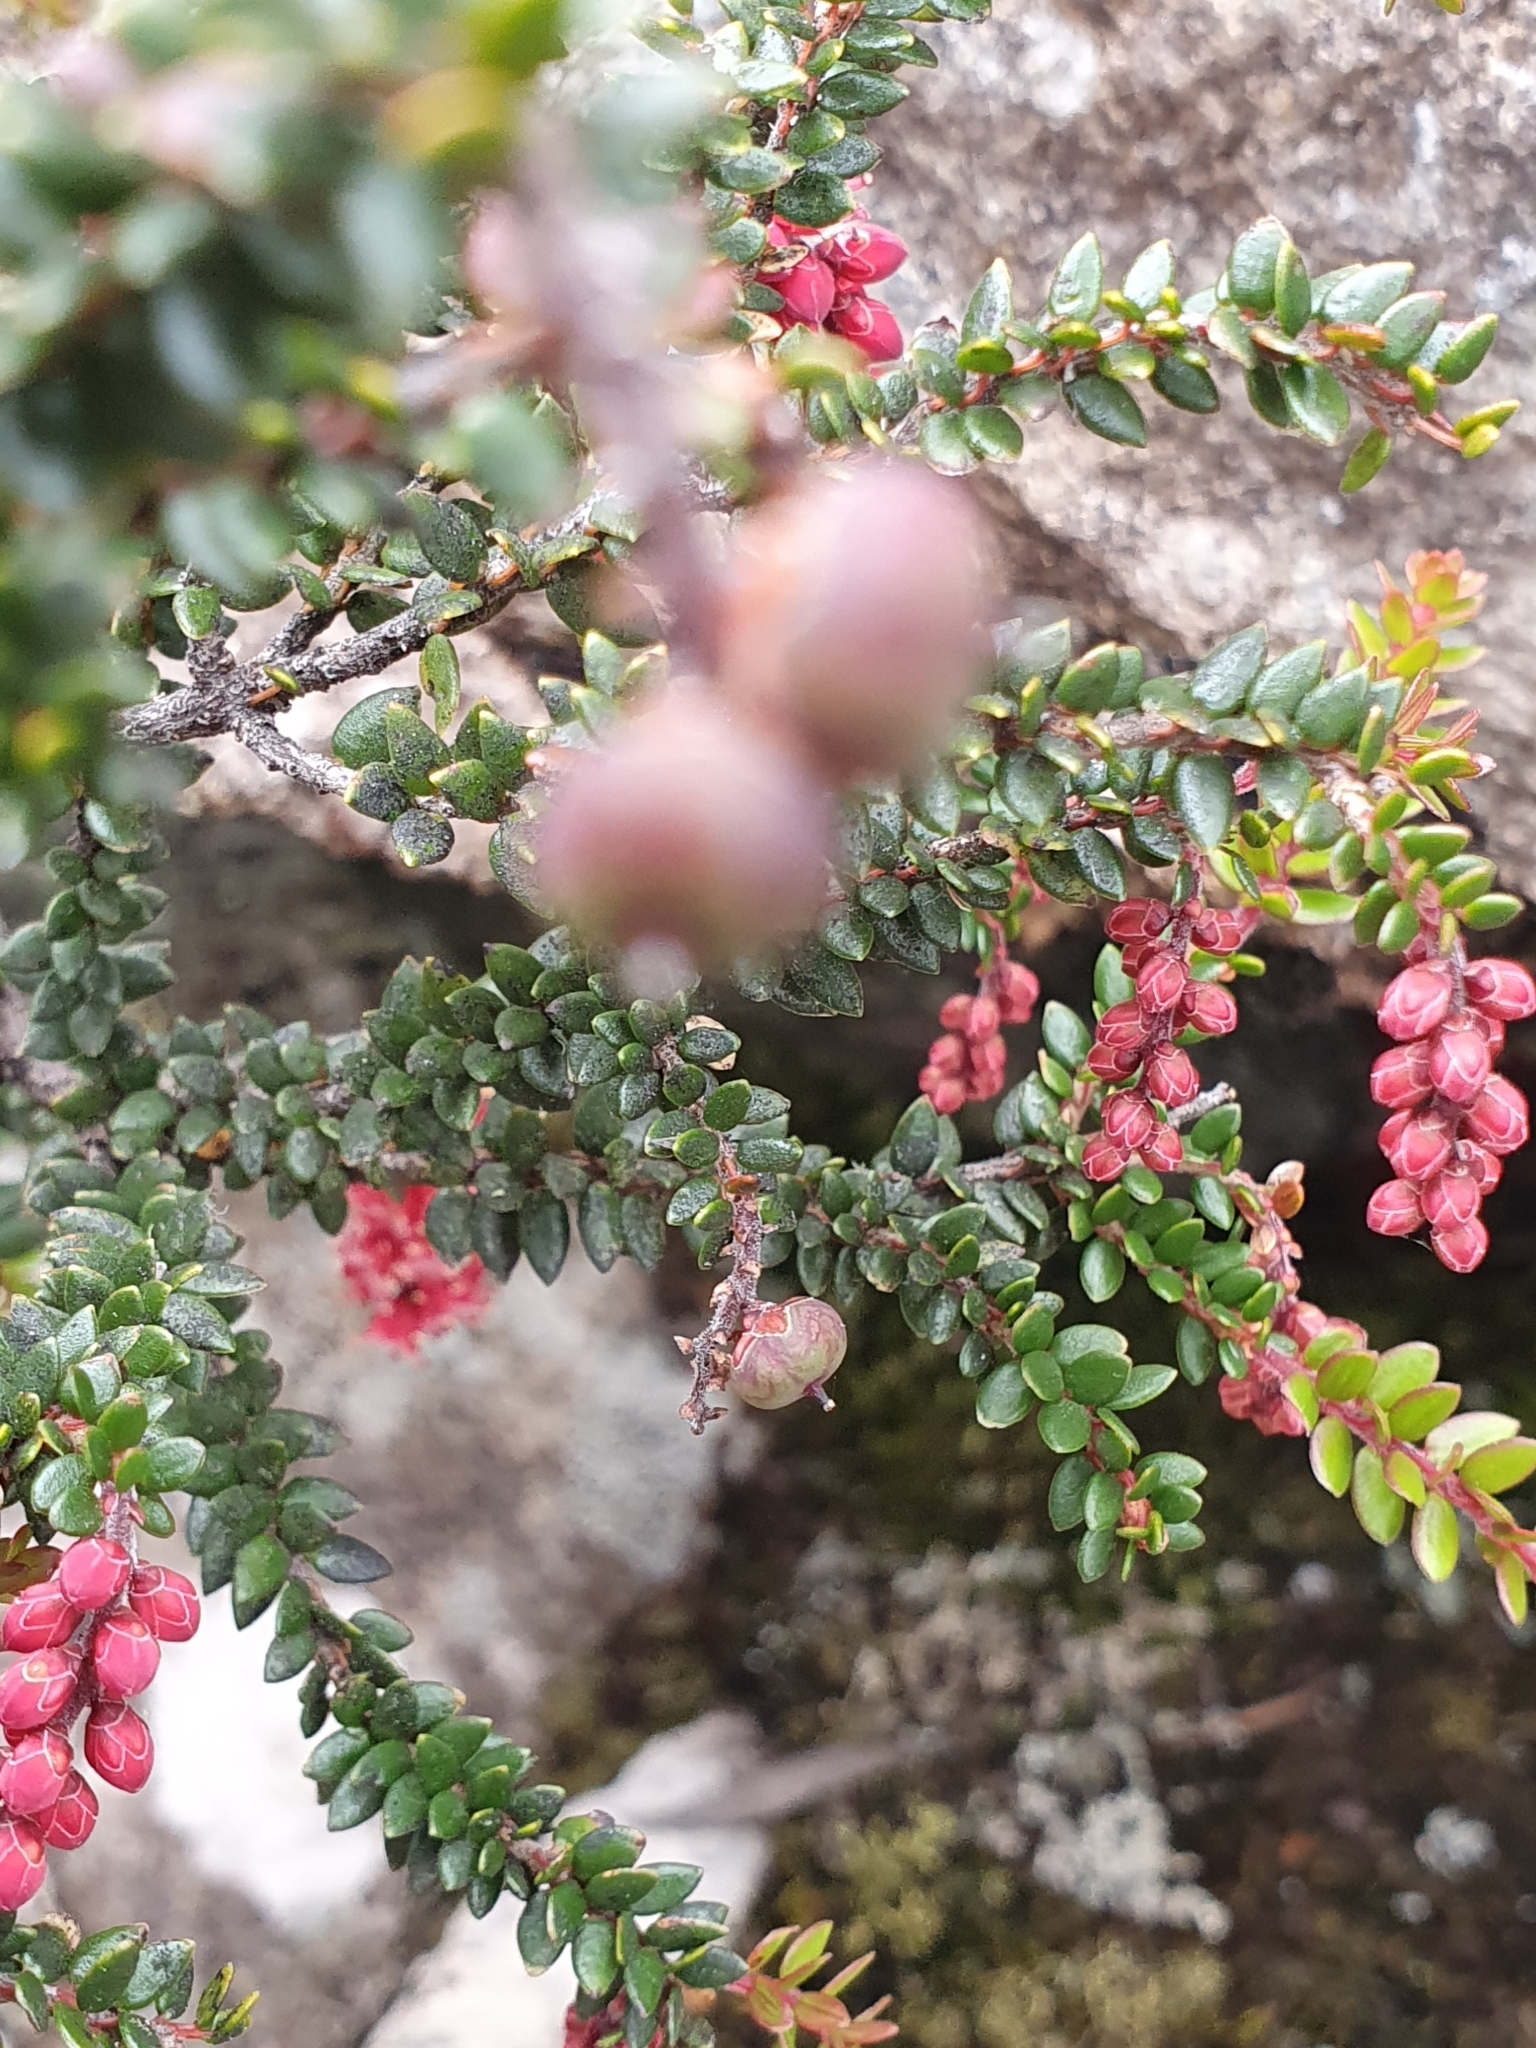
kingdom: Plantae
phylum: Tracheophyta
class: Magnoliopsida
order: Ericales
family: Ericaceae
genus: Trochocarpa
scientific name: Trochocarpa thymifolia
